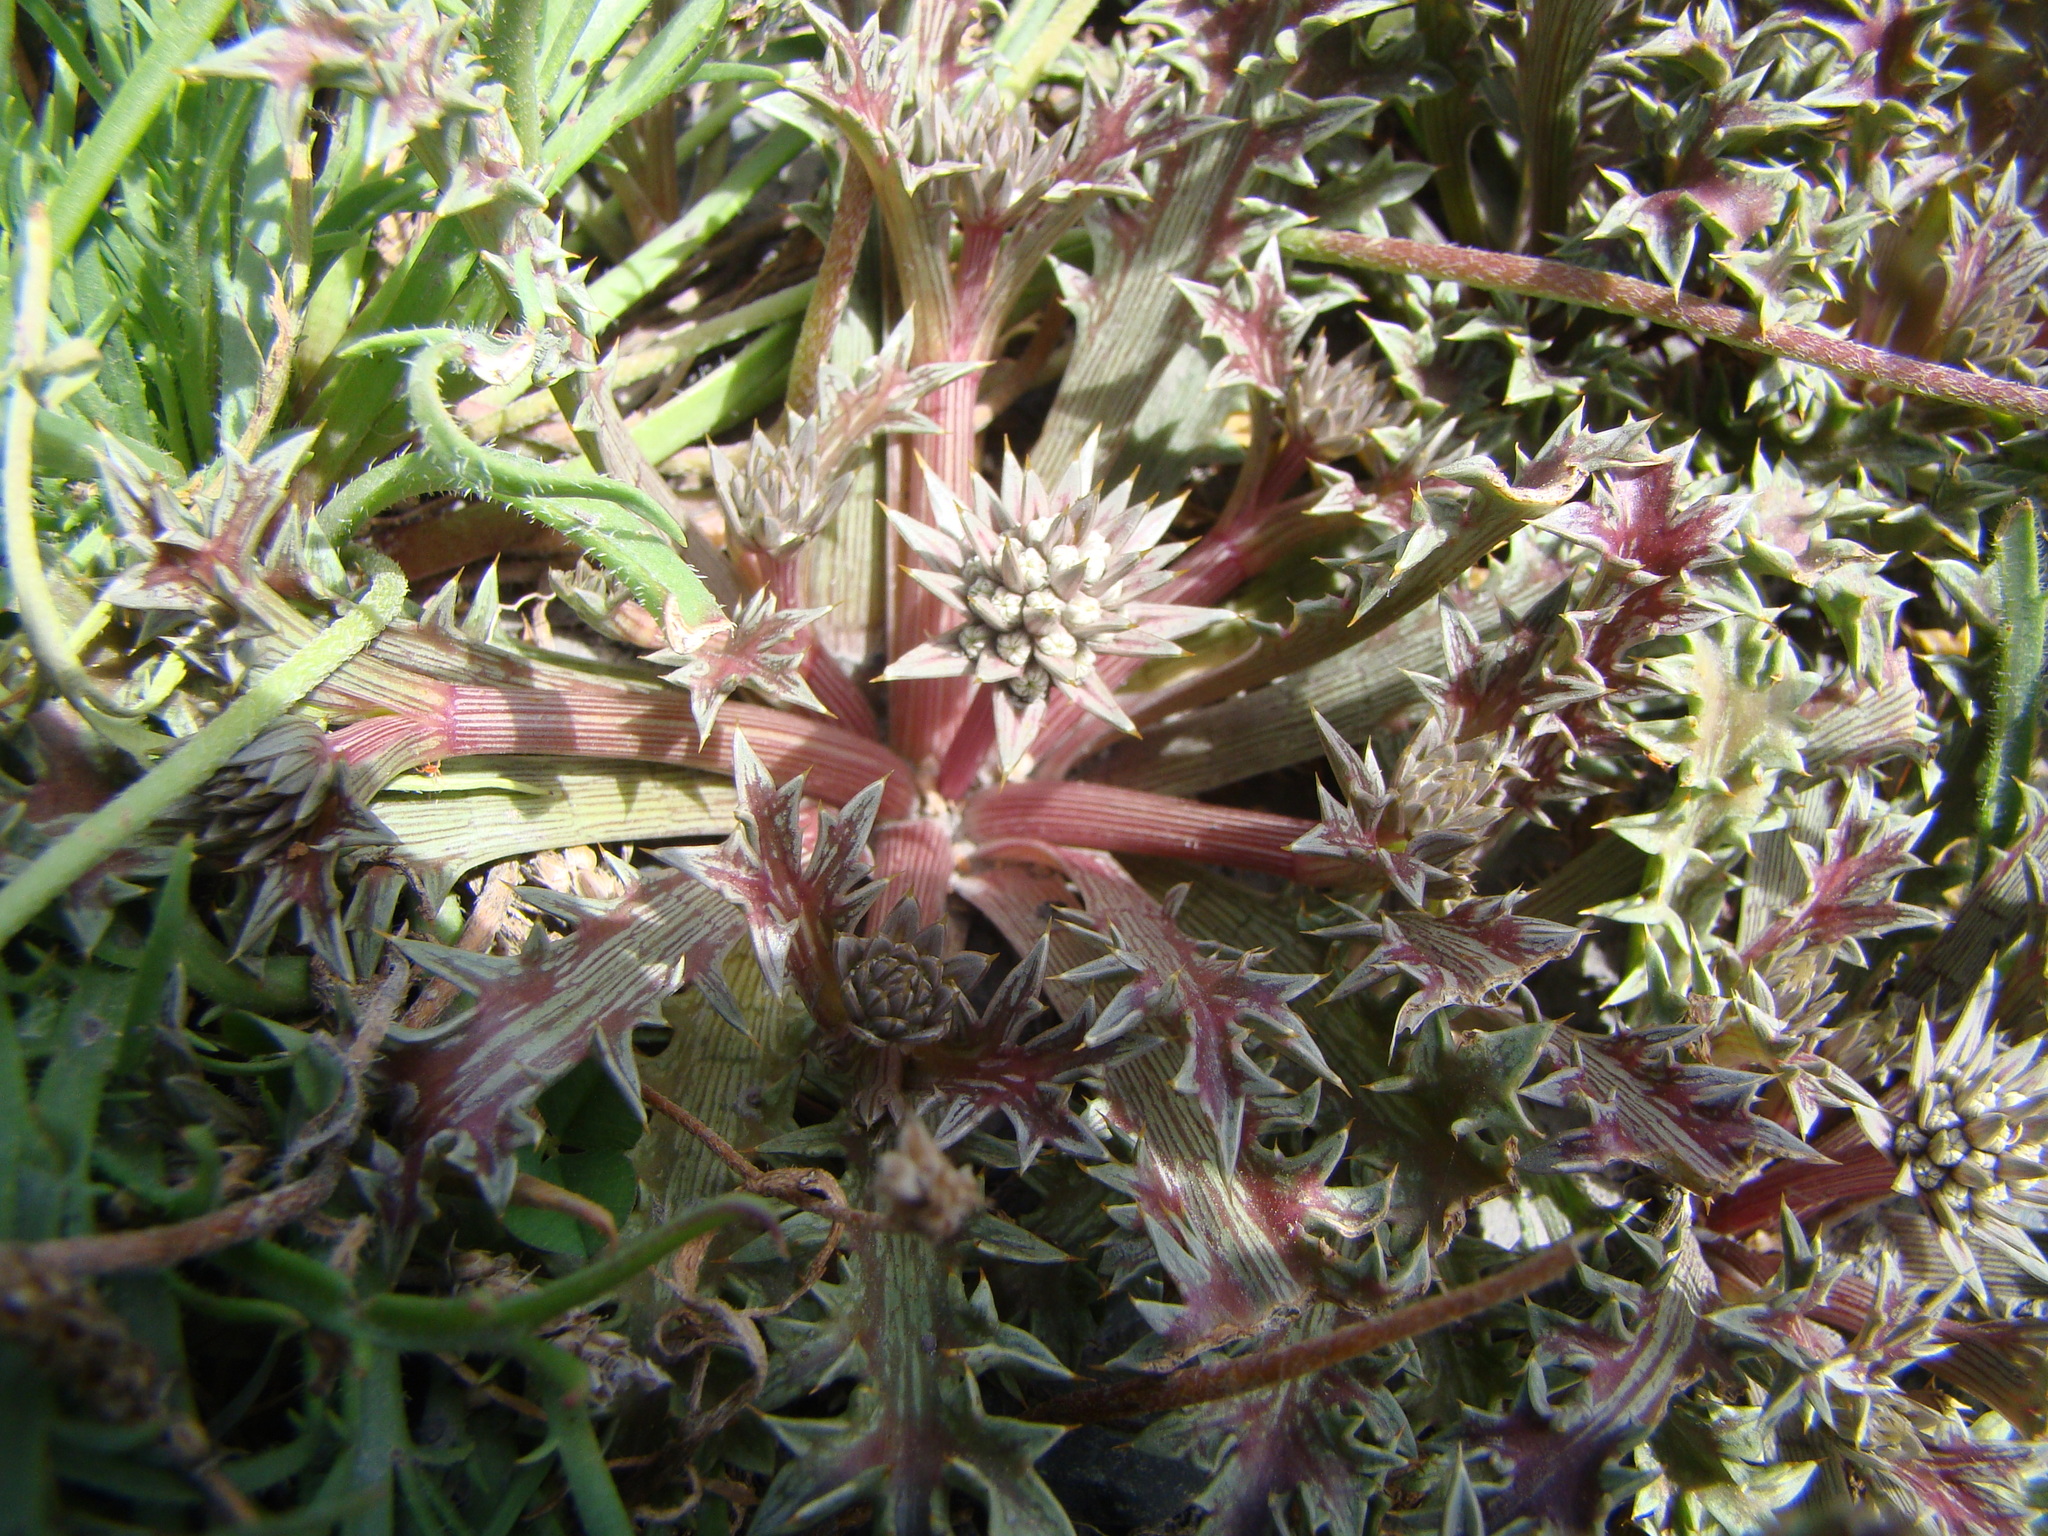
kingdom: Plantae
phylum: Tracheophyta
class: Magnoliopsida
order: Apiales
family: Apiaceae
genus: Eryngium
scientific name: Eryngium vesiculosum
